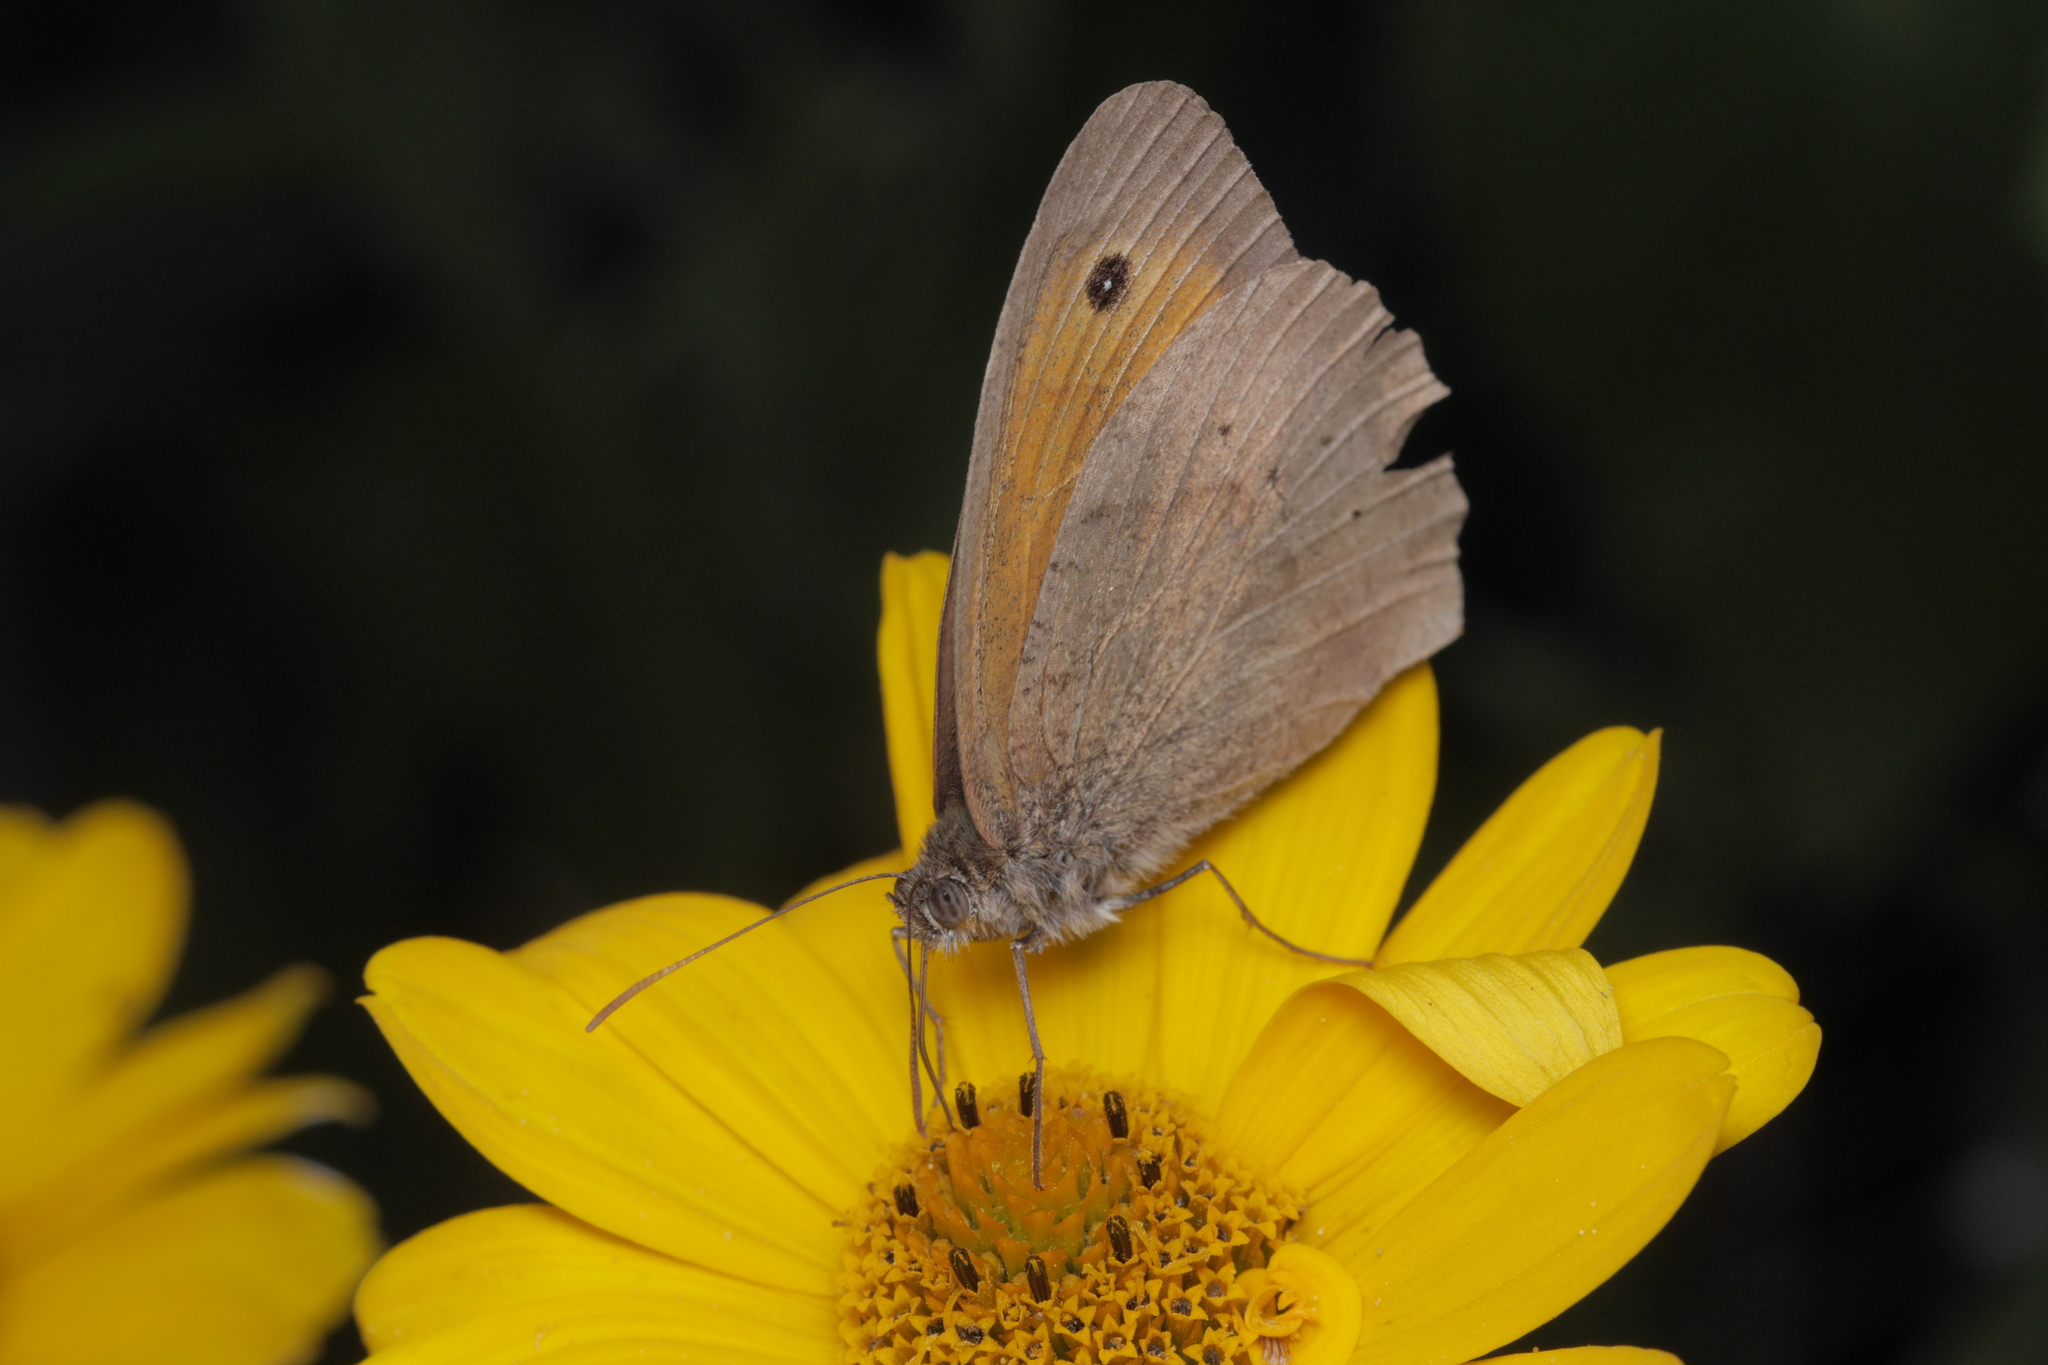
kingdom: Animalia
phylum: Arthropoda
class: Insecta
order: Lepidoptera
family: Nymphalidae
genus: Maniola
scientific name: Maniola jurtina
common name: Meadow brown
